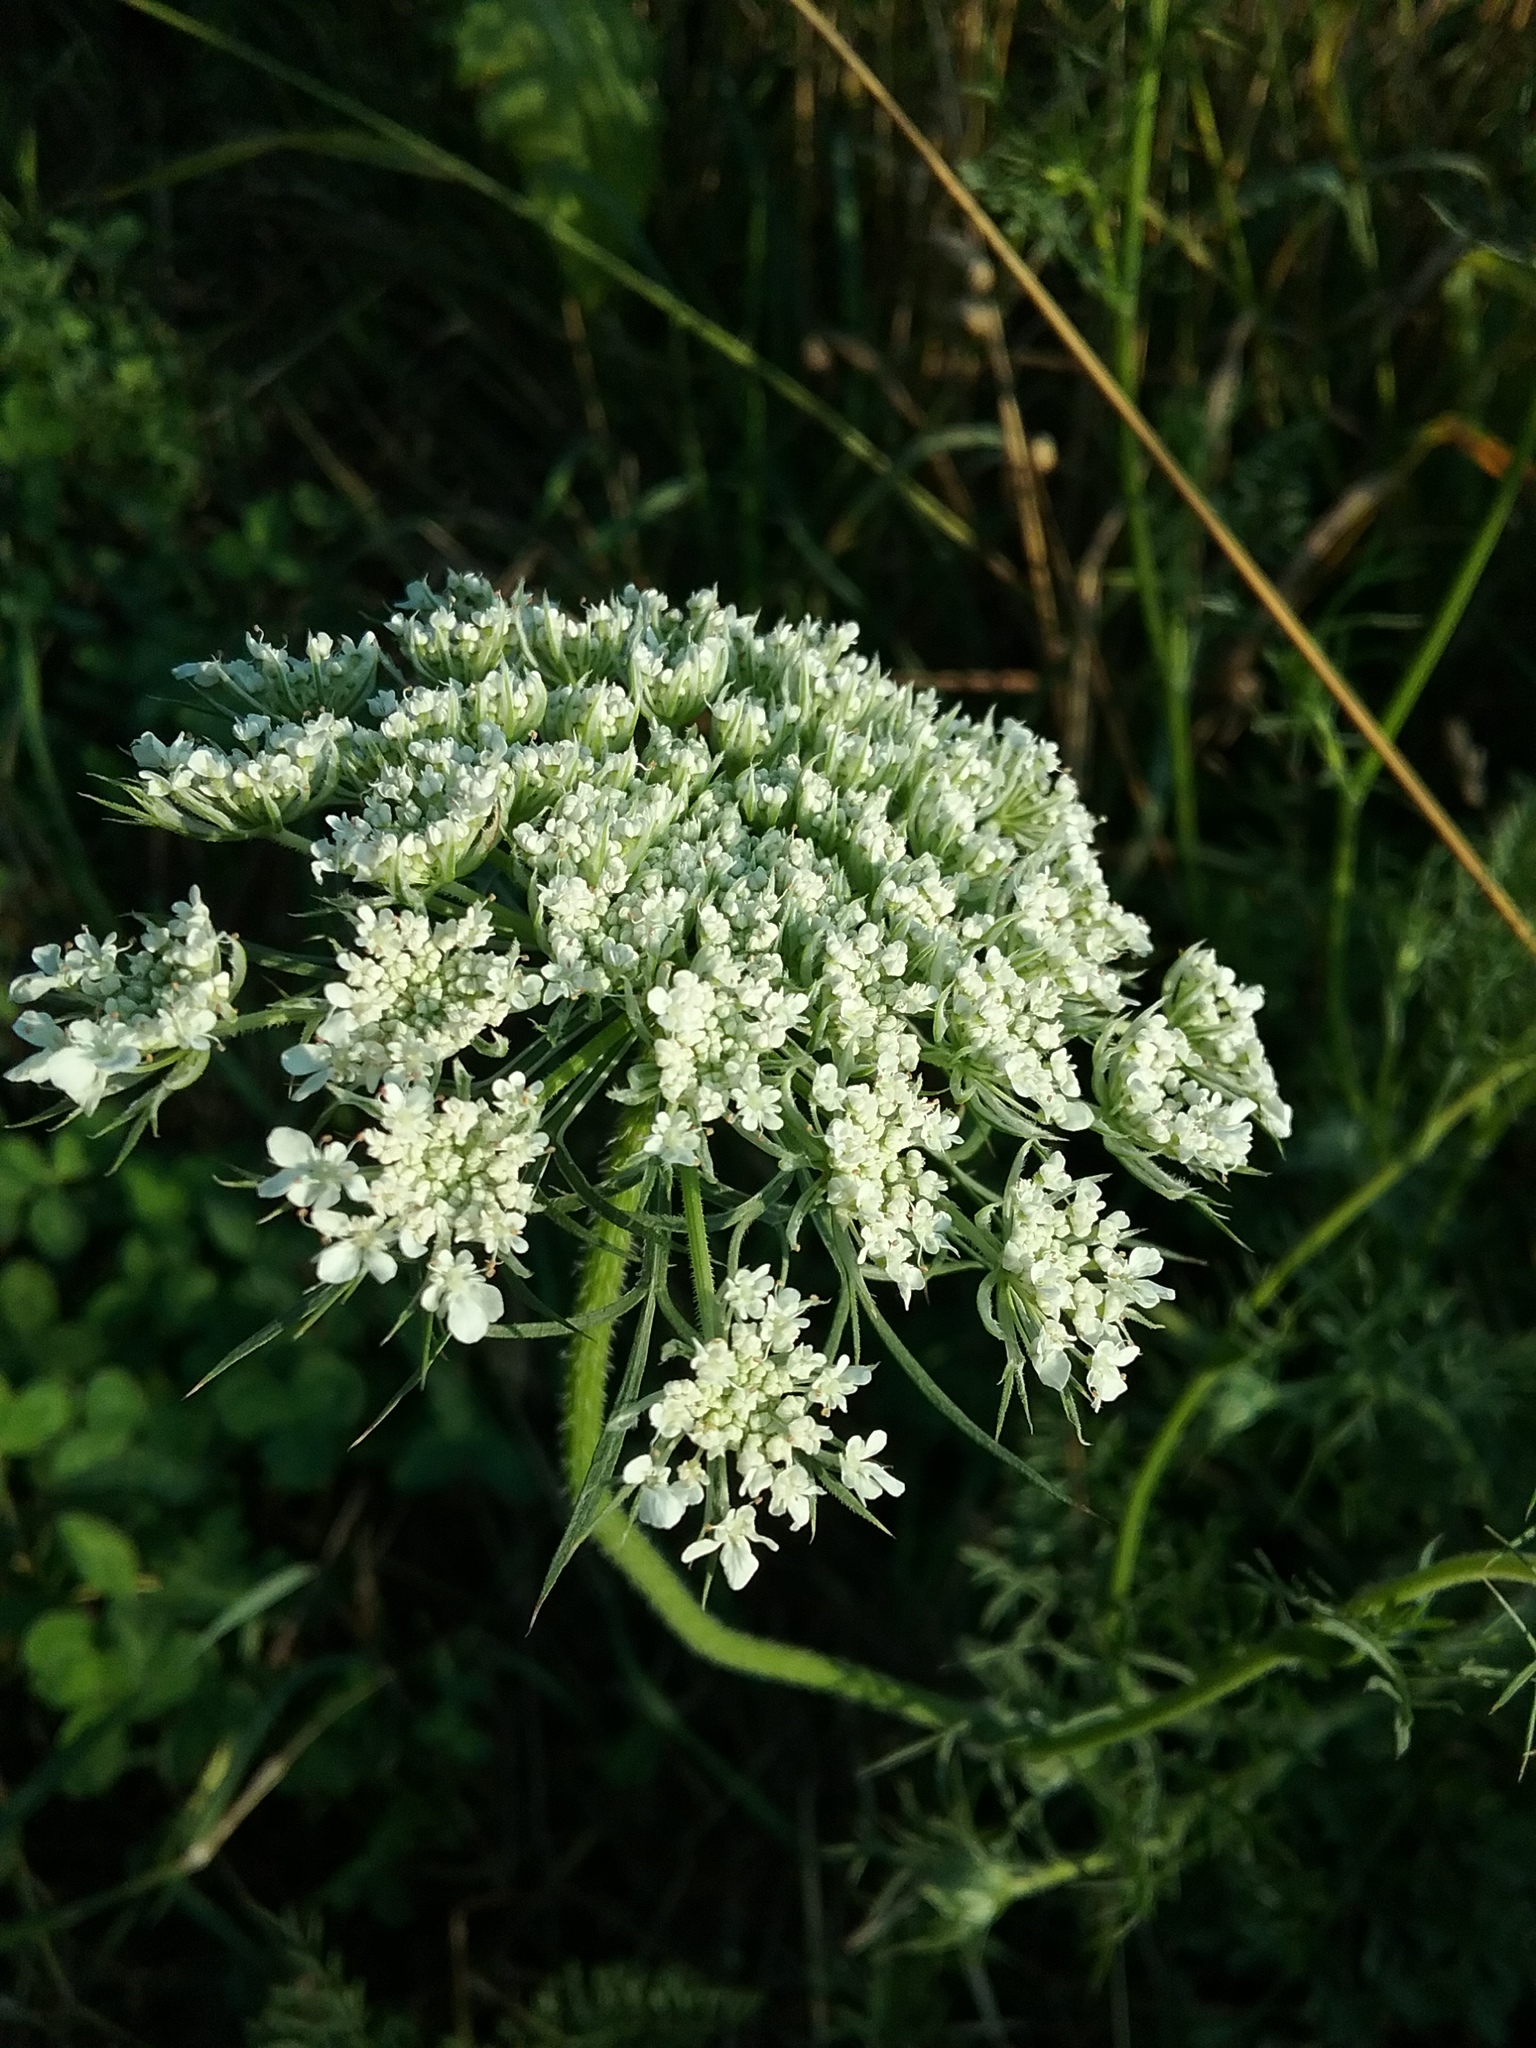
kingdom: Plantae
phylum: Tracheophyta
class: Magnoliopsida
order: Apiales
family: Apiaceae
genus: Daucus
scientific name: Daucus carota
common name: Wild carrot
